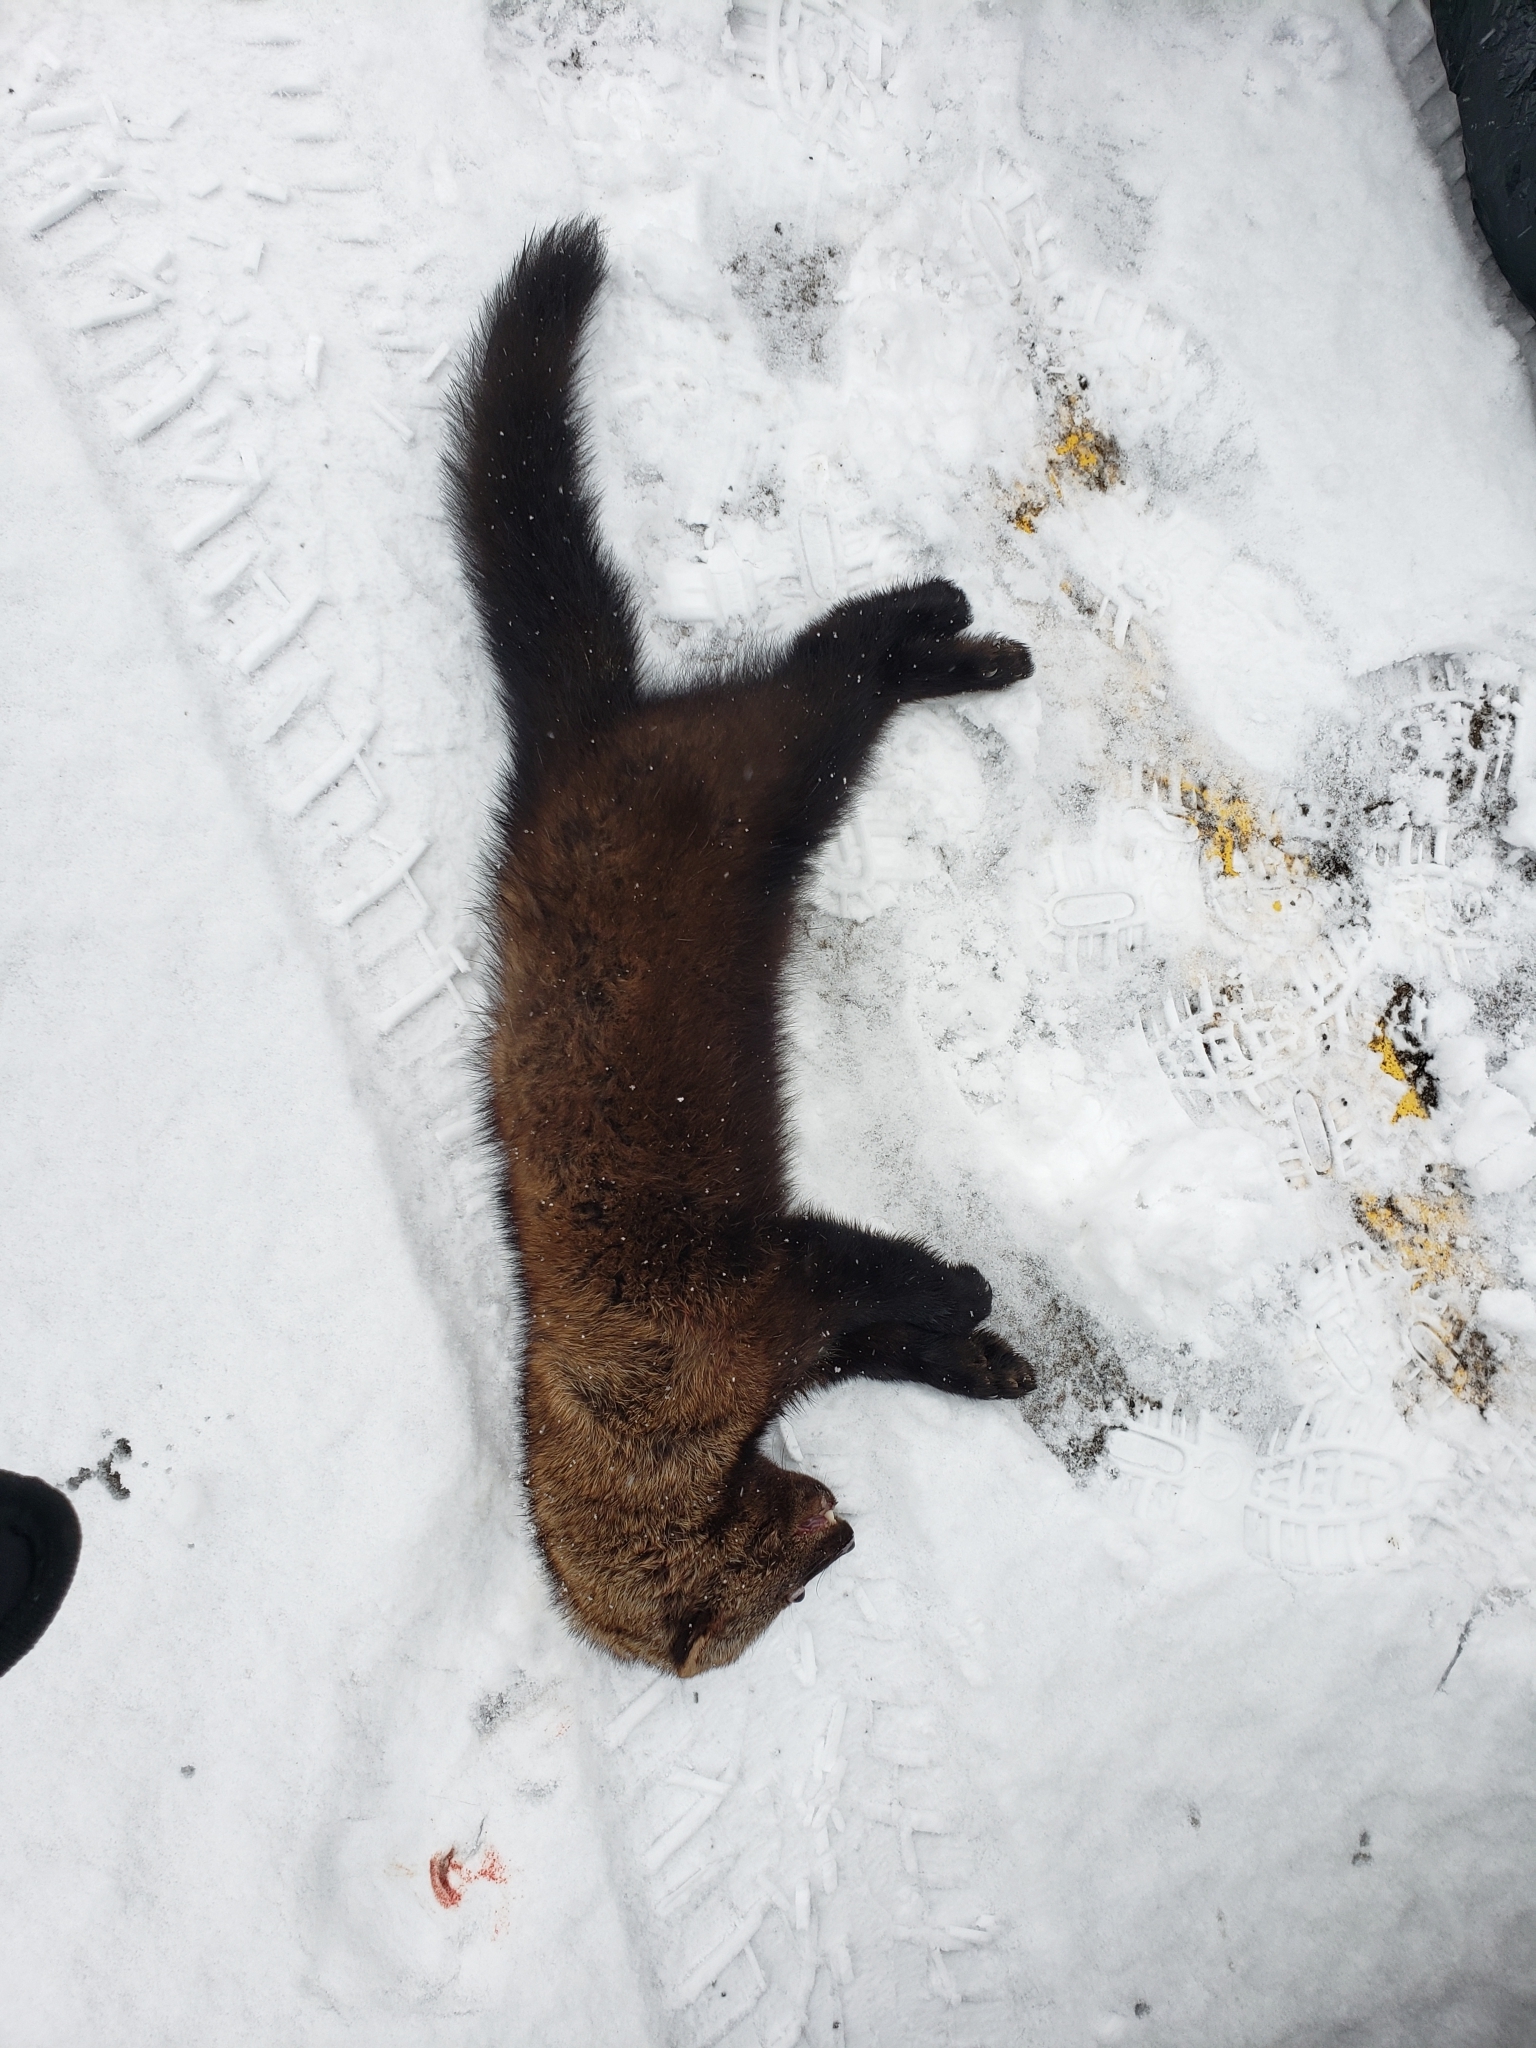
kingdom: Animalia
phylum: Chordata
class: Mammalia
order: Carnivora
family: Mustelidae
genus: Pekania
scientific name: Pekania pennanti
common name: Fisher
